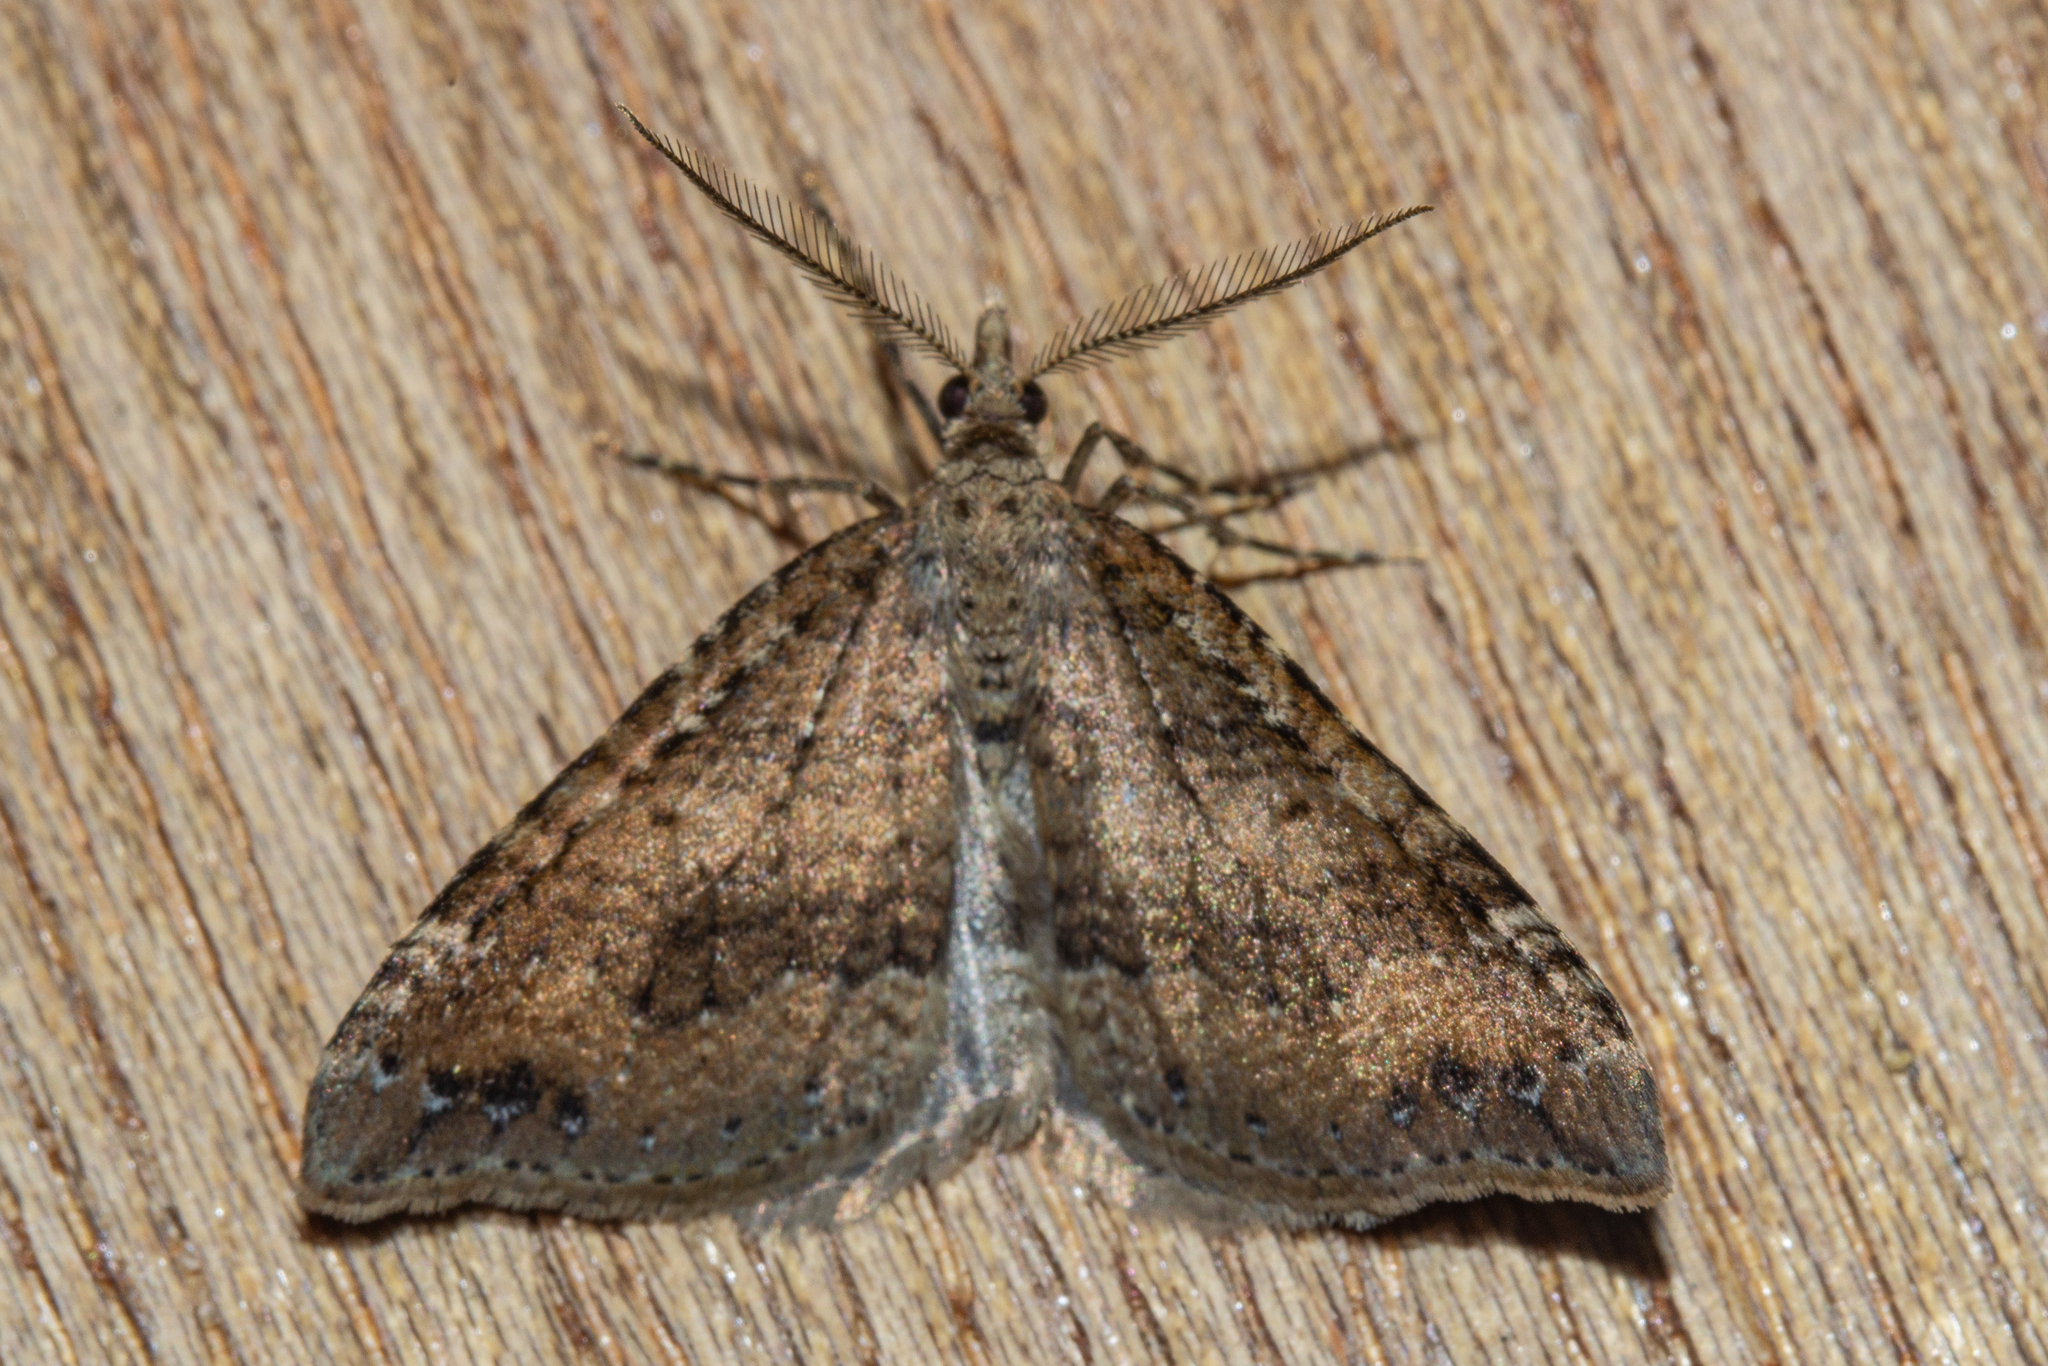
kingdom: Animalia
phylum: Arthropoda
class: Insecta
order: Lepidoptera
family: Geometridae
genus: Homodotis
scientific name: Homodotis falcata
